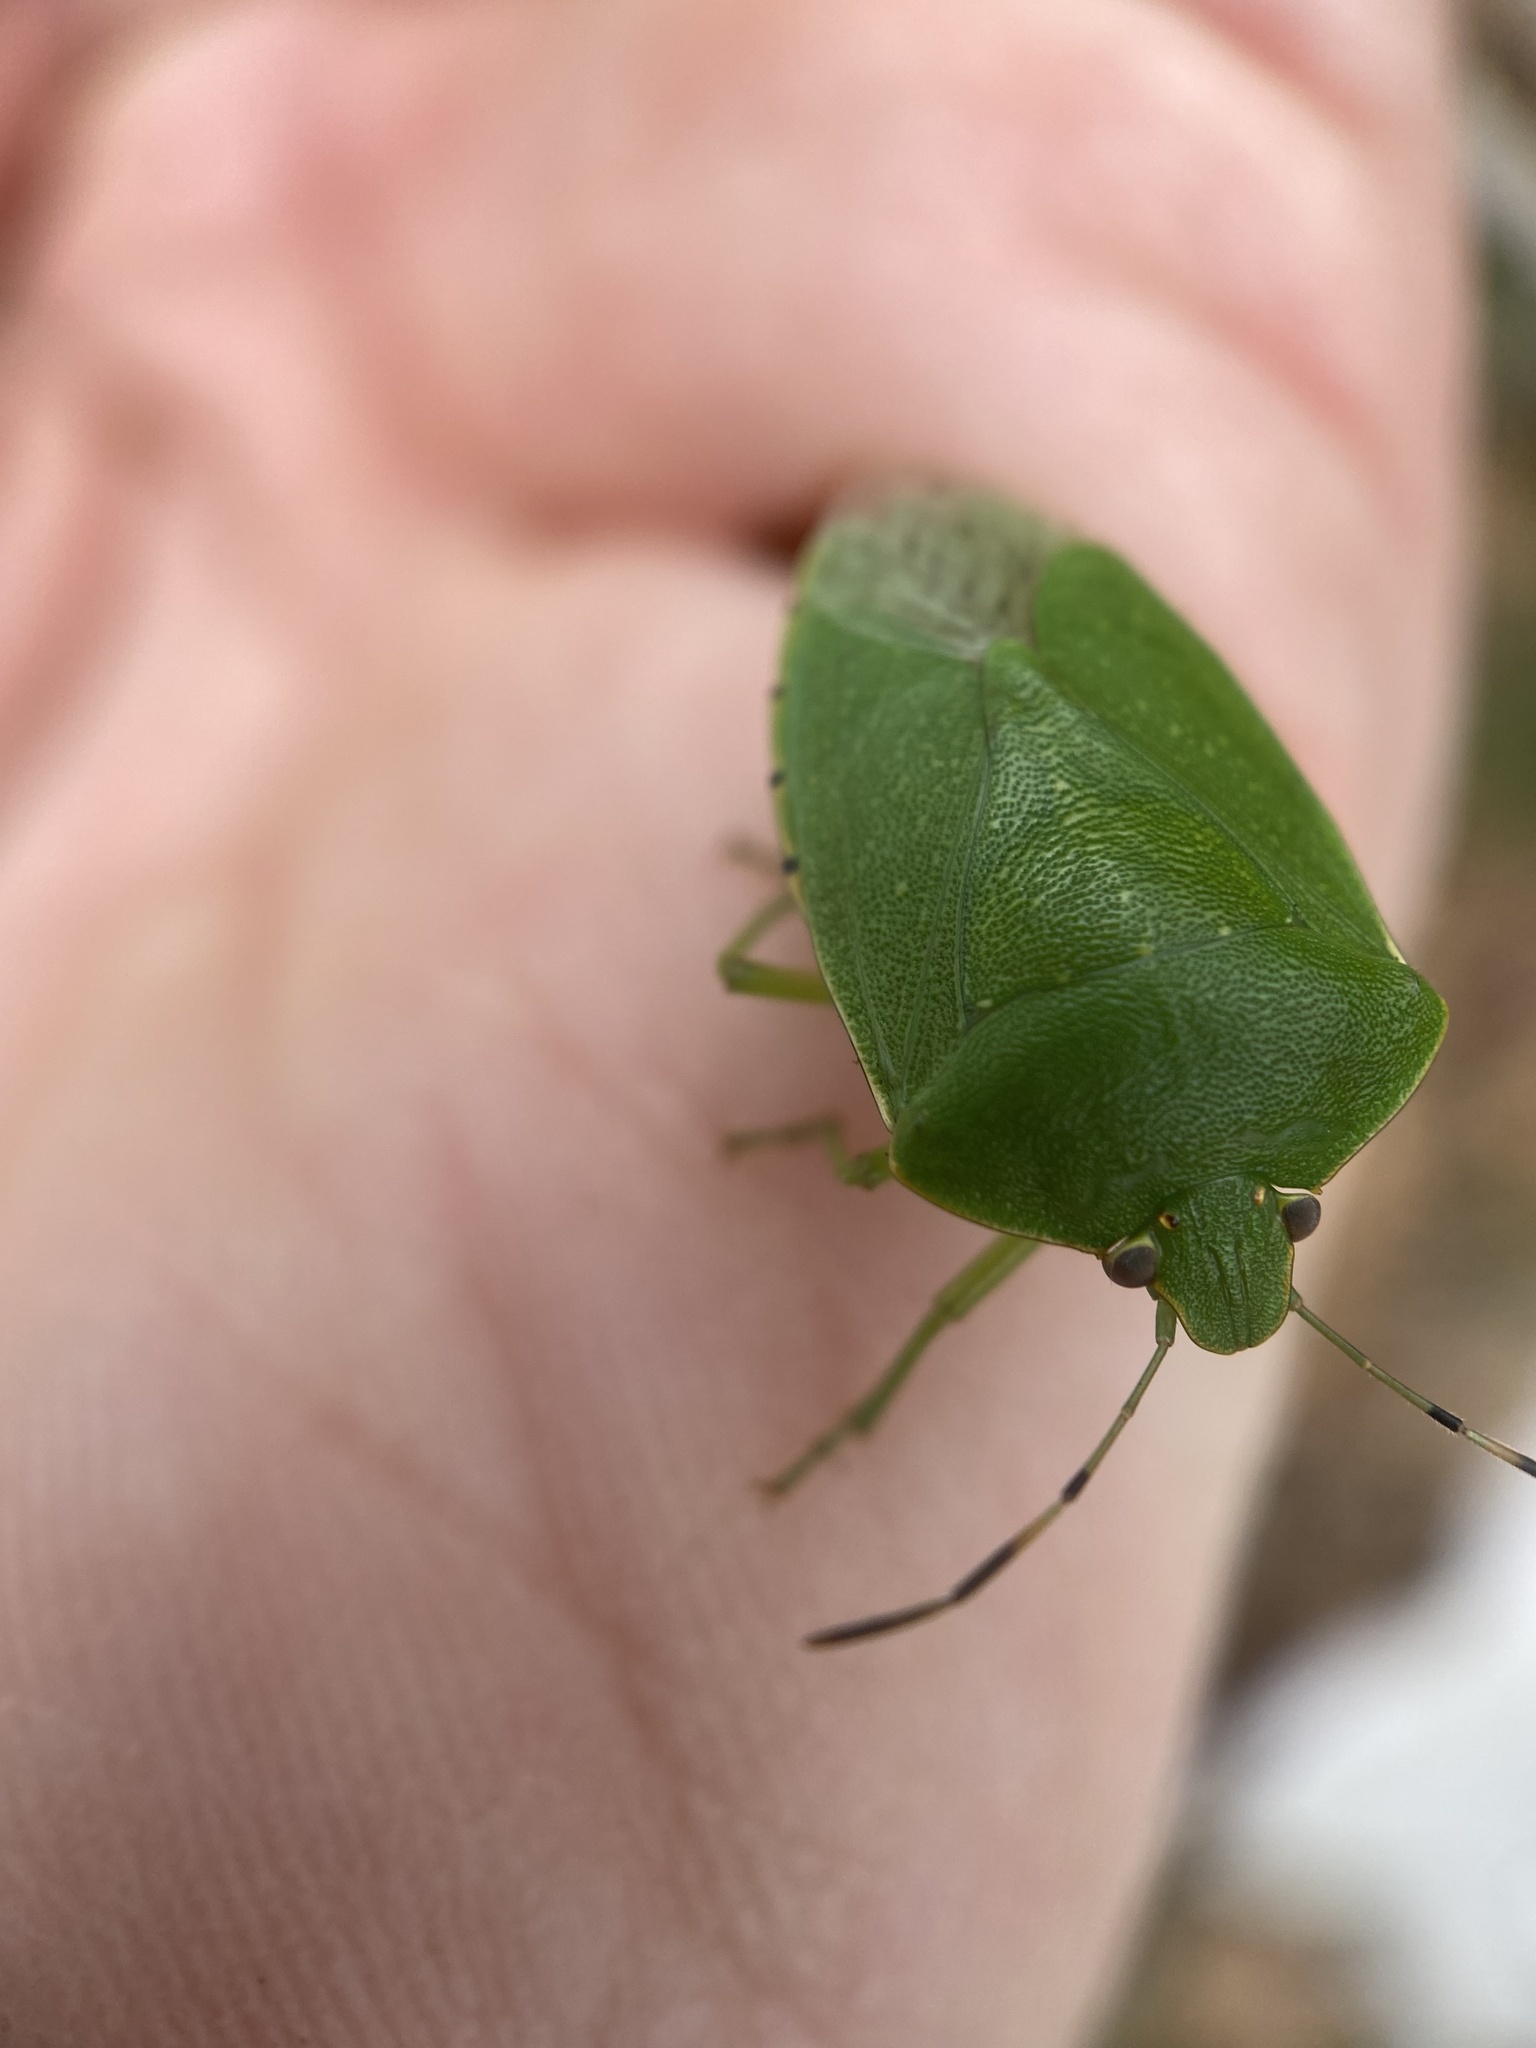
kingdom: Animalia
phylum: Arthropoda
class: Insecta
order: Hemiptera
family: Pentatomidae
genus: Chinavia
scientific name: Chinavia hilaris
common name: Green stink bug
